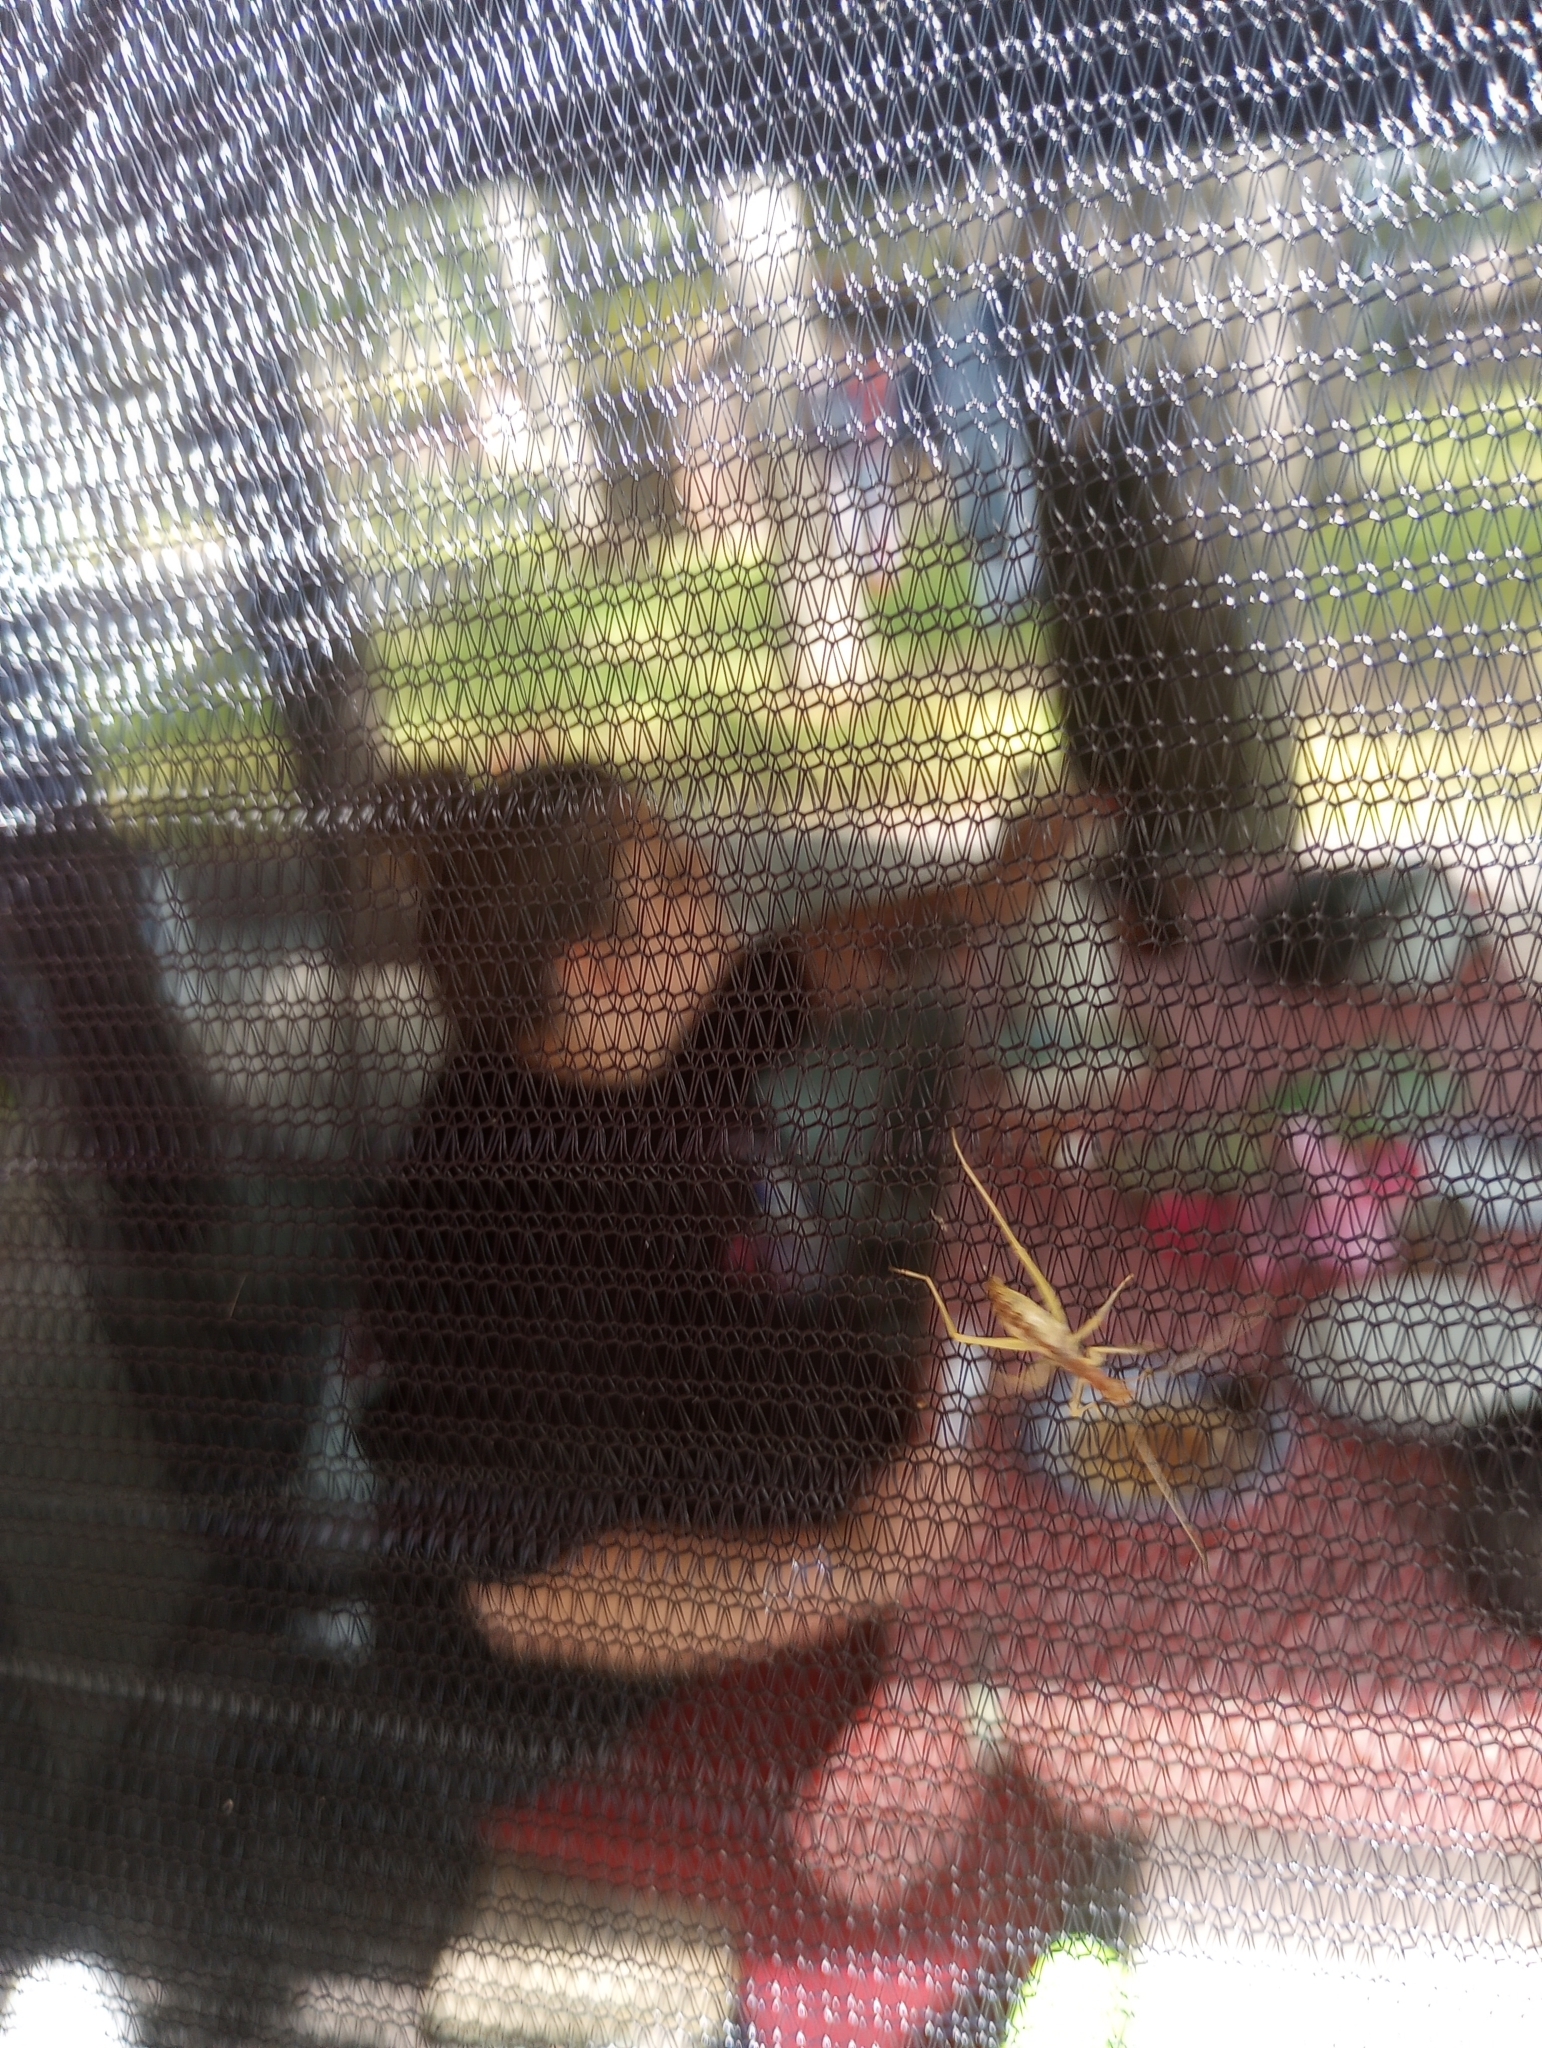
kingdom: Animalia
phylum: Arthropoda
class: Insecta
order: Orthoptera
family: Gryllidae
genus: Neoxabea
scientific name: Neoxabea bipunctata
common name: Two-spotted tree cricket
